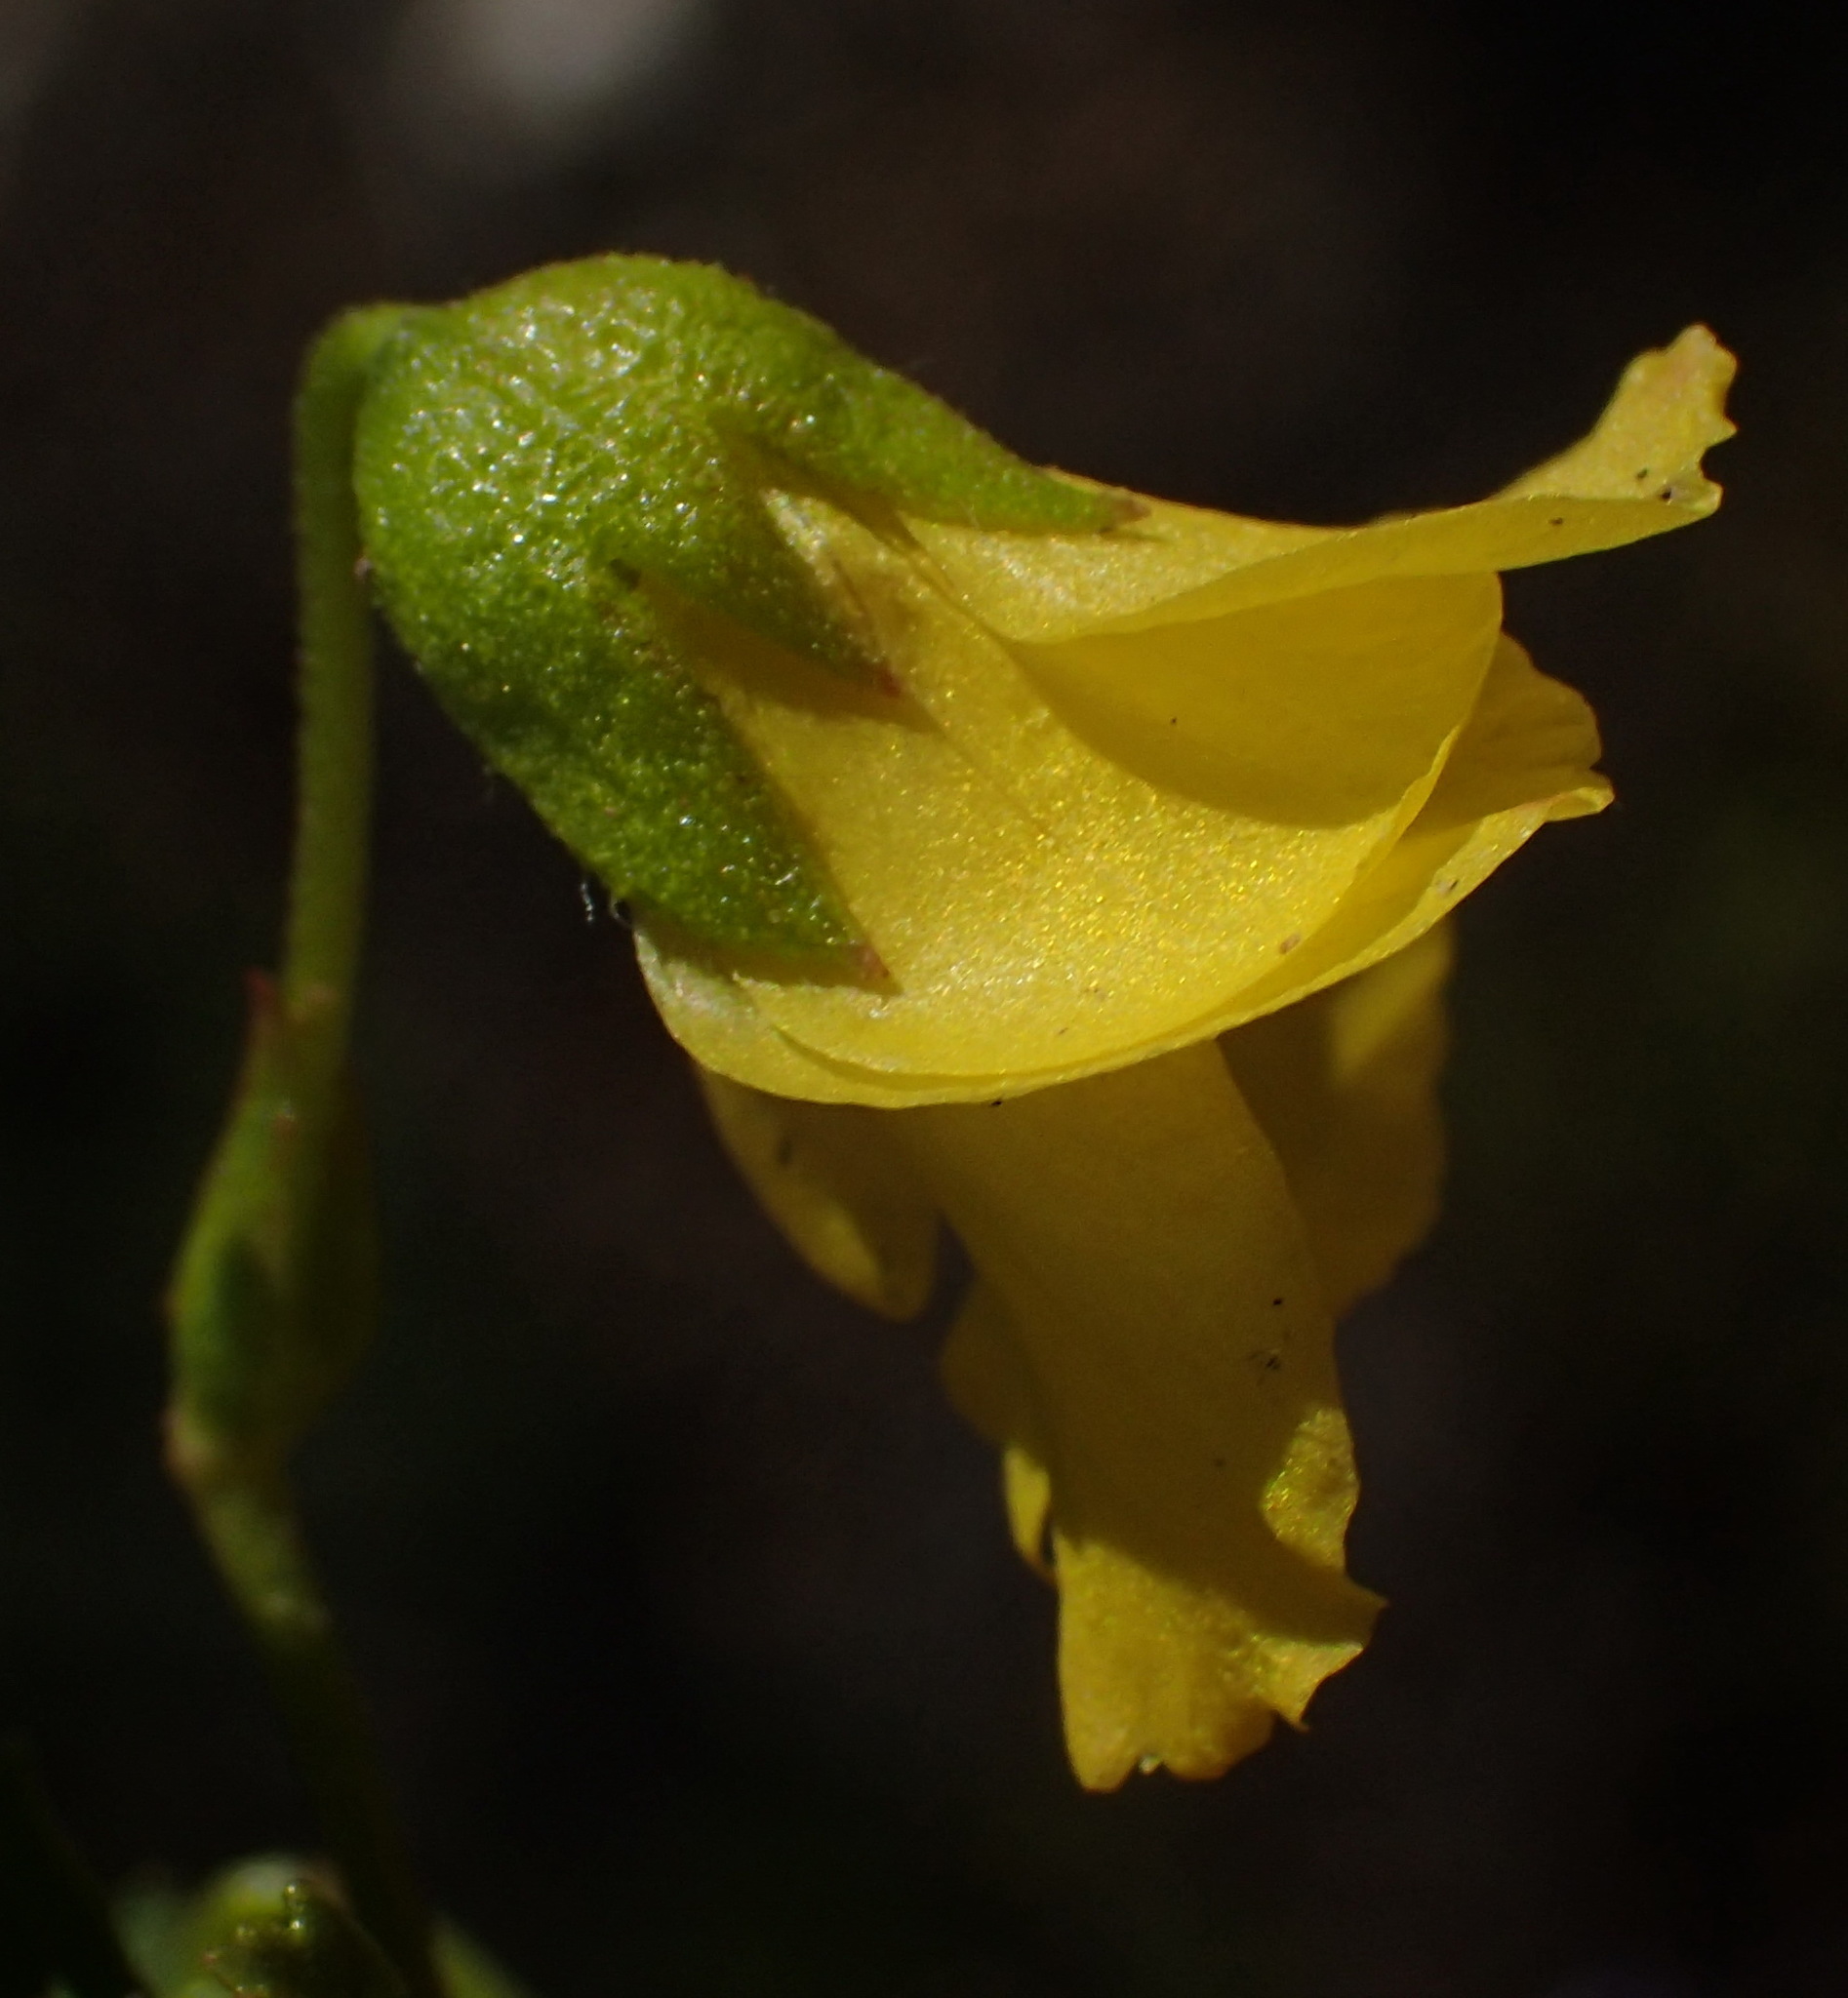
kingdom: Plantae
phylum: Tracheophyta
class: Magnoliopsida
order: Malvales
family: Malvaceae
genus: Hermannia
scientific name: Hermannia saccifera
